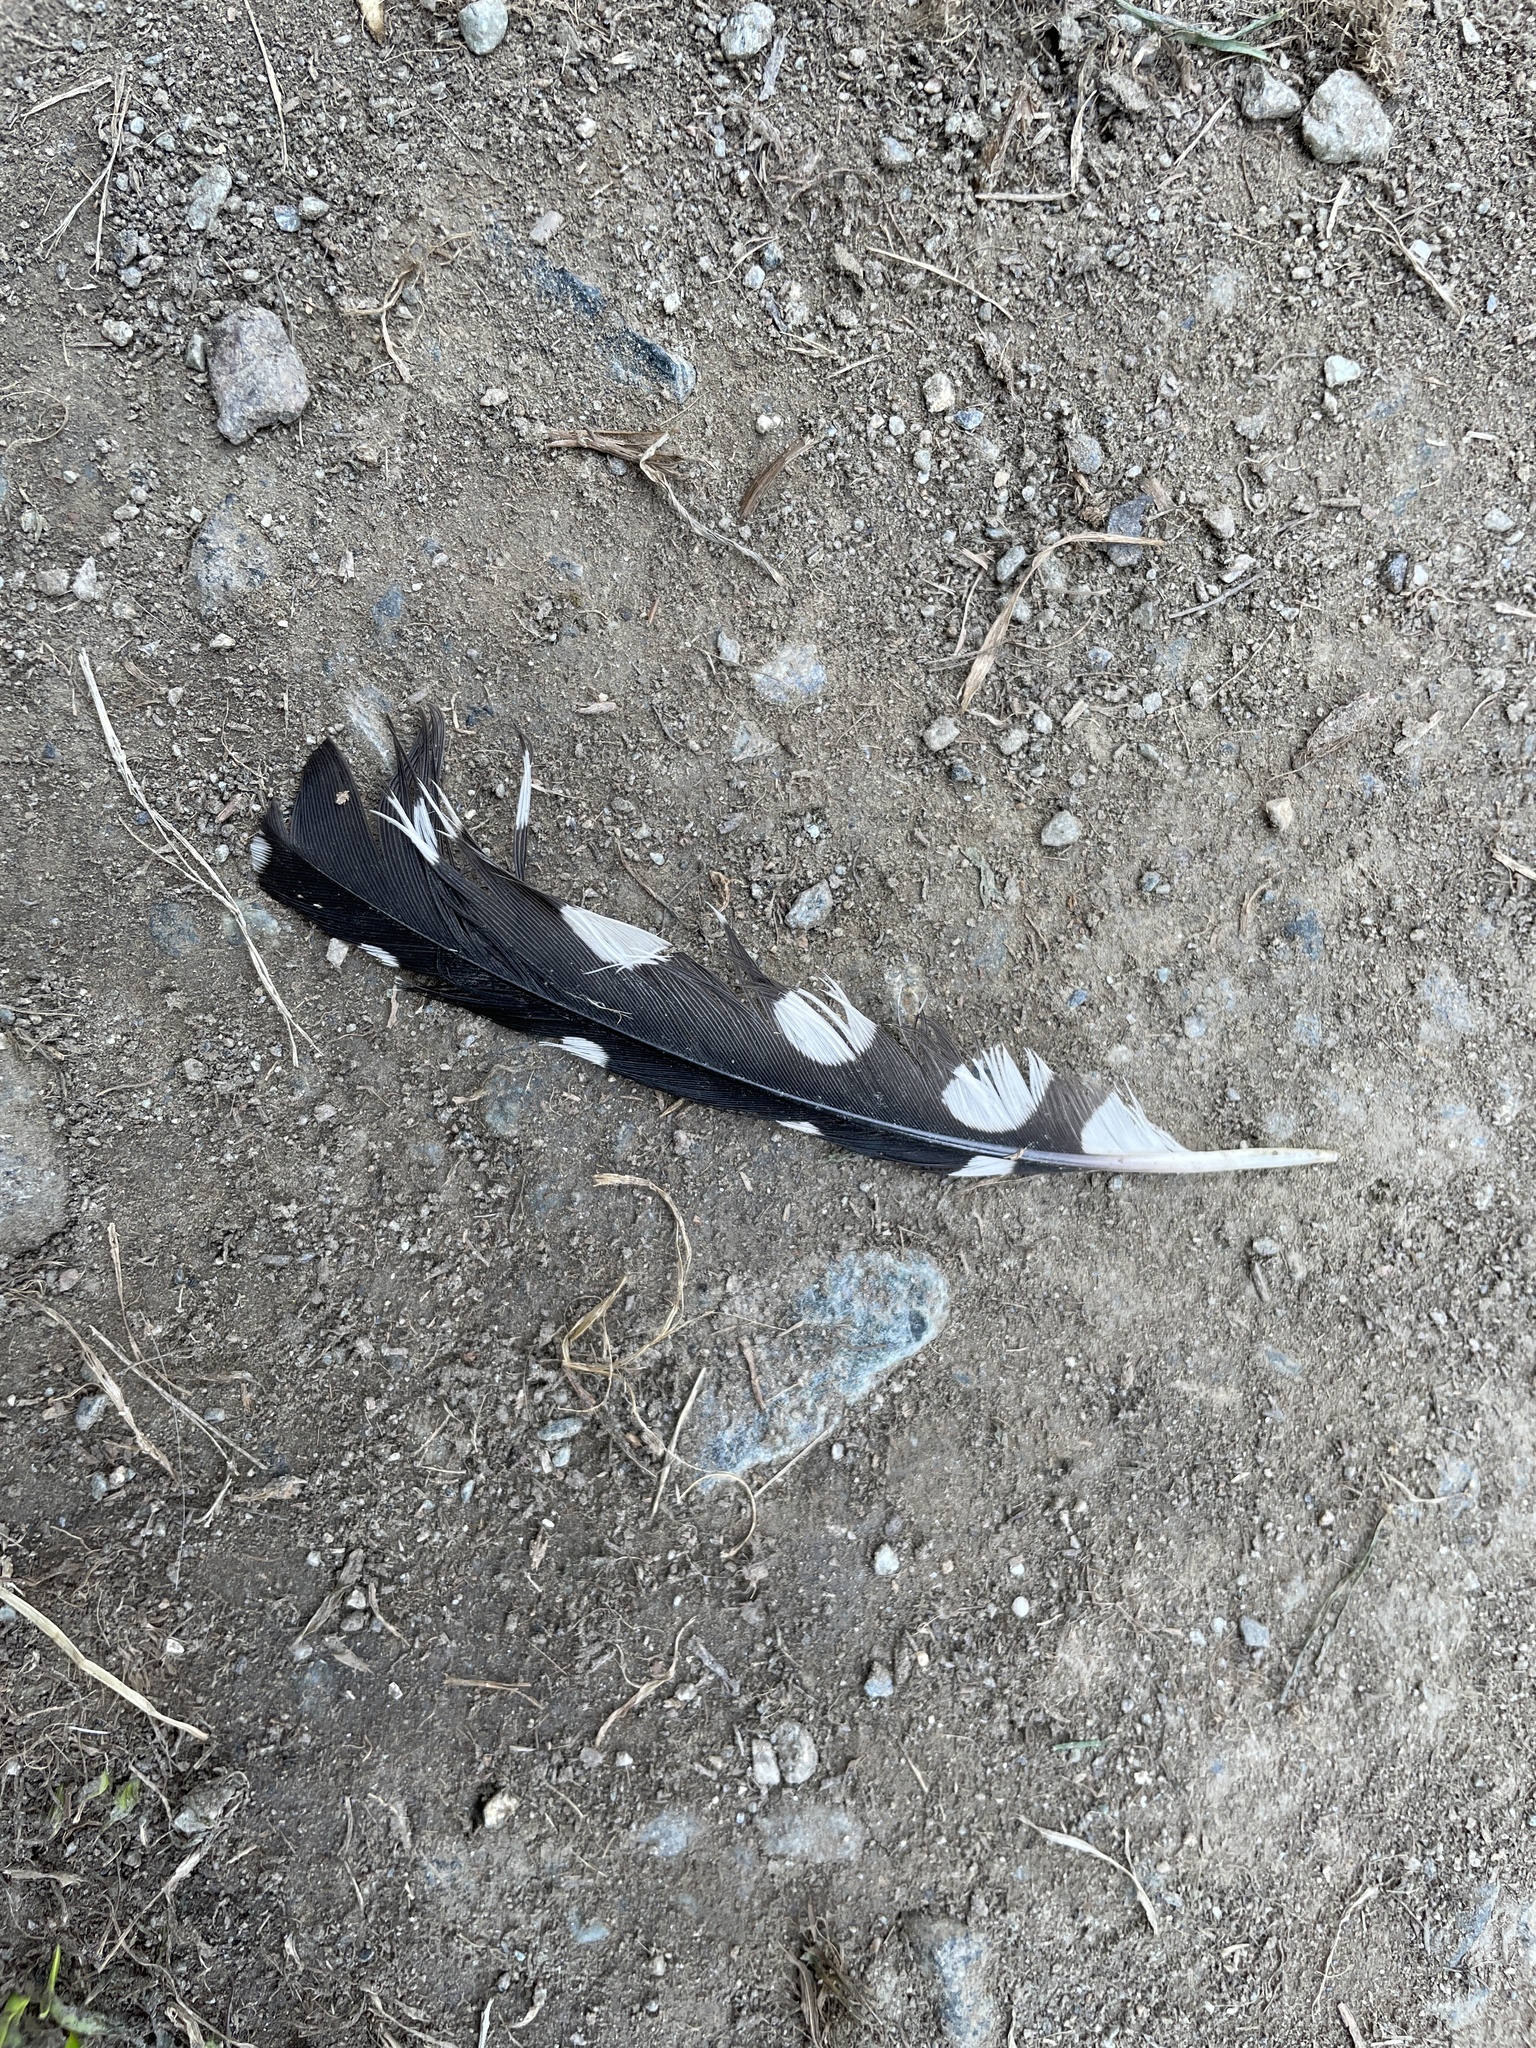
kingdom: Animalia
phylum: Chordata
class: Aves
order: Piciformes
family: Picidae
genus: Dendrocopos
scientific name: Dendrocopos major
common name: Great spotted woodpecker
